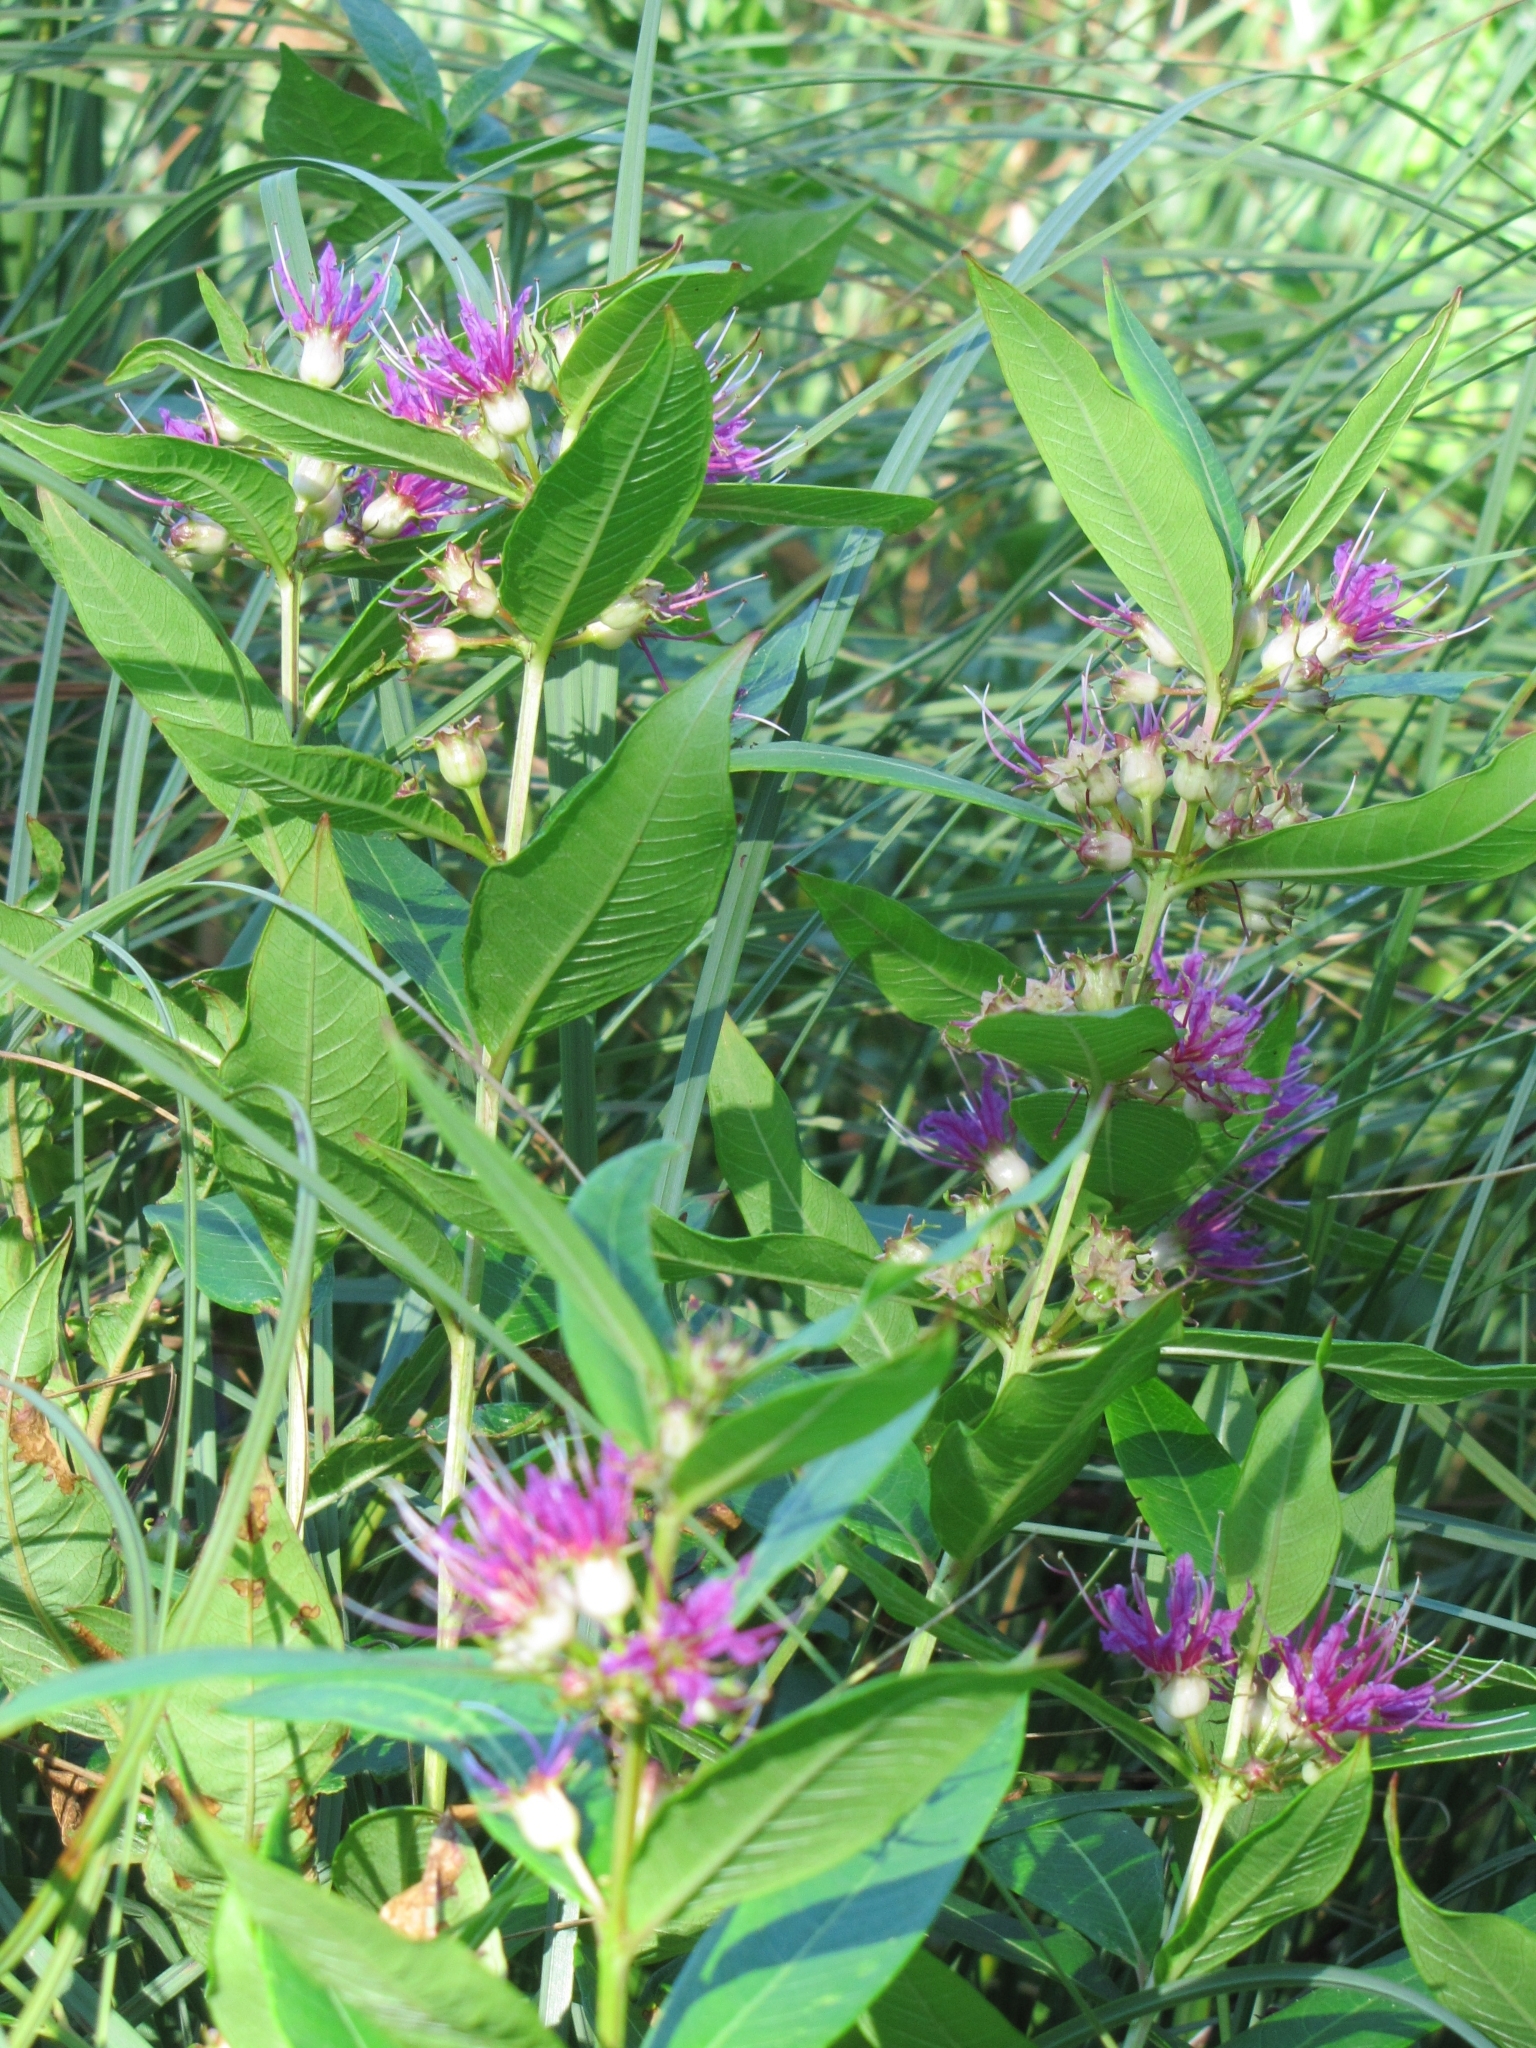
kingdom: Plantae
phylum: Tracheophyta
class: Magnoliopsida
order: Myrtales
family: Lythraceae
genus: Decodon
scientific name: Decodon verticillatus
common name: Hairy swamp loosestrife
